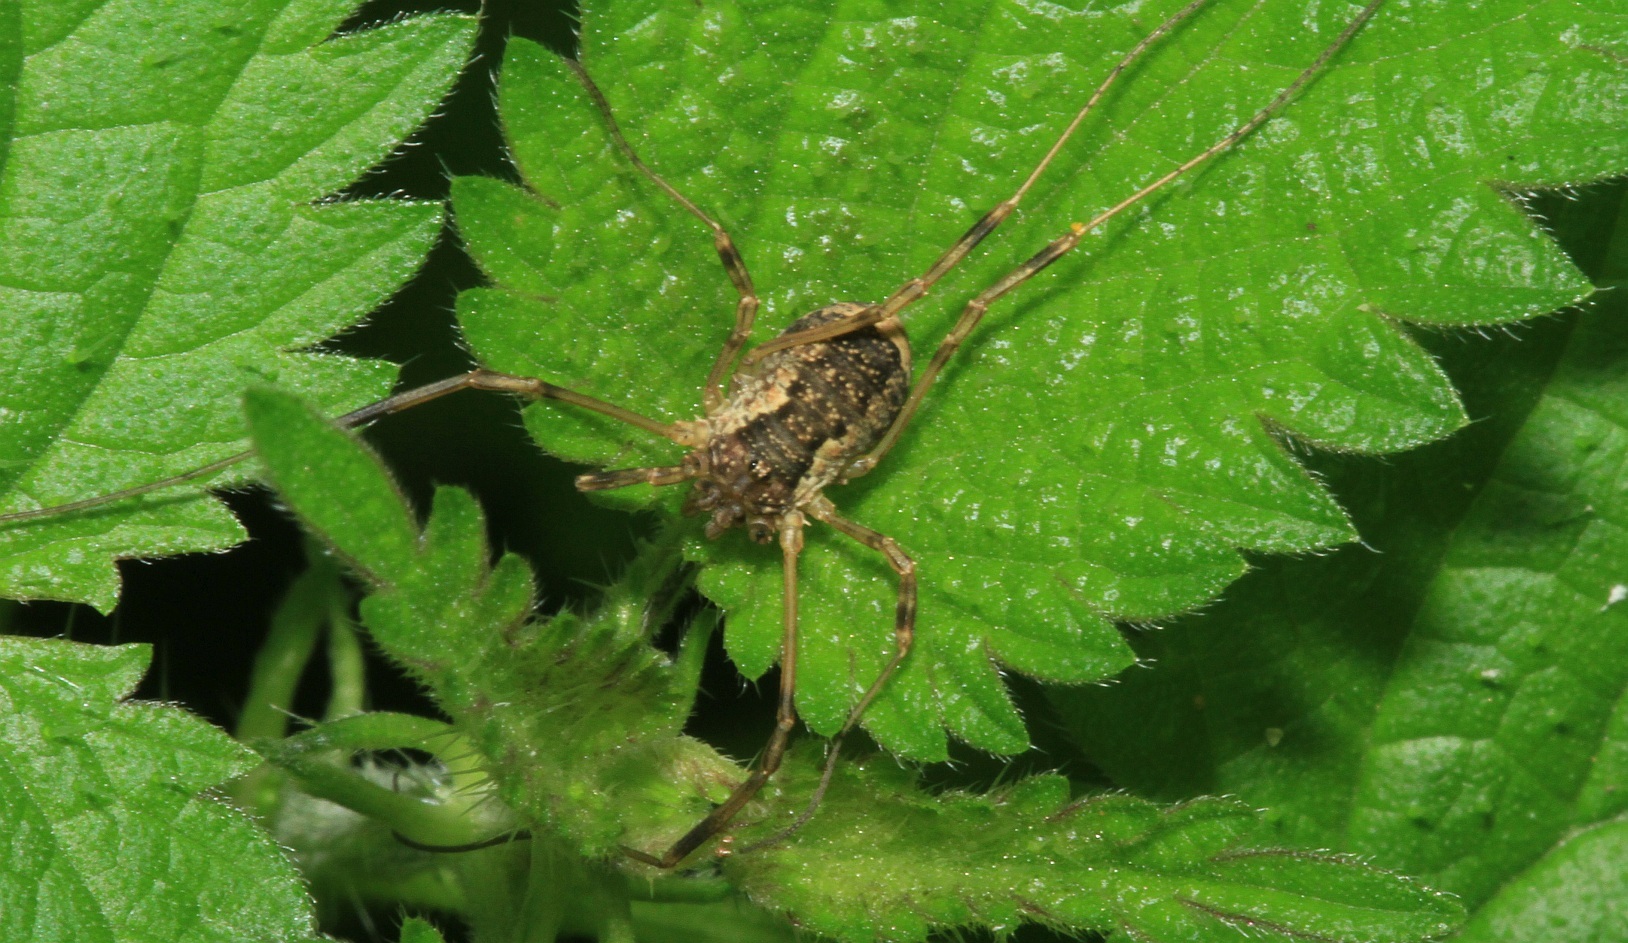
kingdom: Animalia
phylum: Arthropoda
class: Arachnida
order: Opiliones
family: Phalangiidae
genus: Oligolophus
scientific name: Oligolophus tridens
